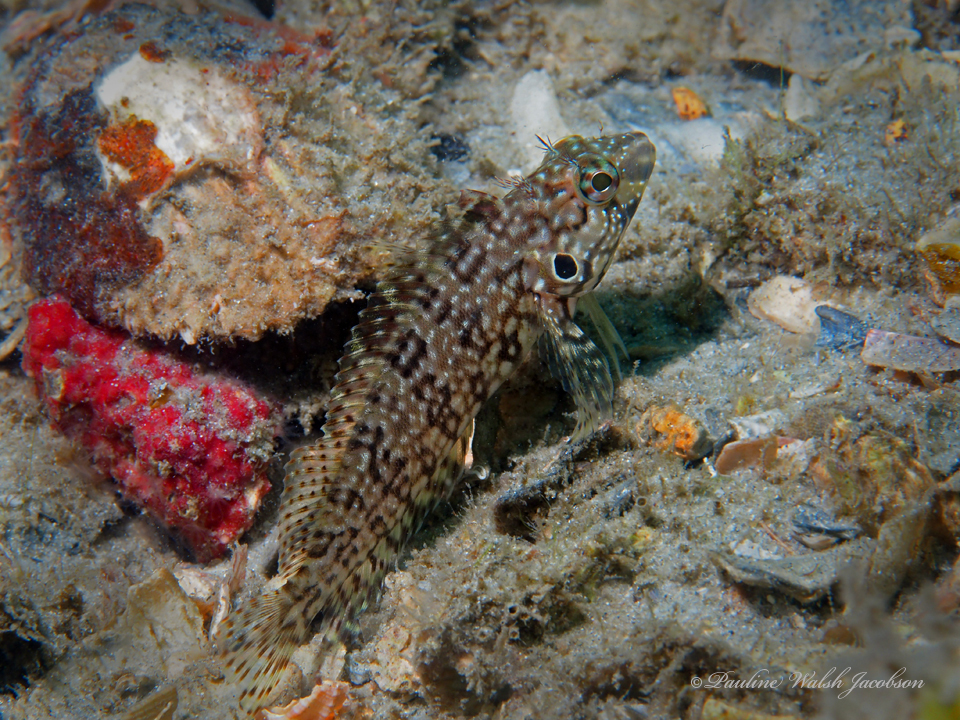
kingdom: Animalia
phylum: Chordata
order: Perciformes
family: Labrisomidae
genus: Labrisomus
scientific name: Labrisomus nuchipinnis
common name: Hairy blenny
